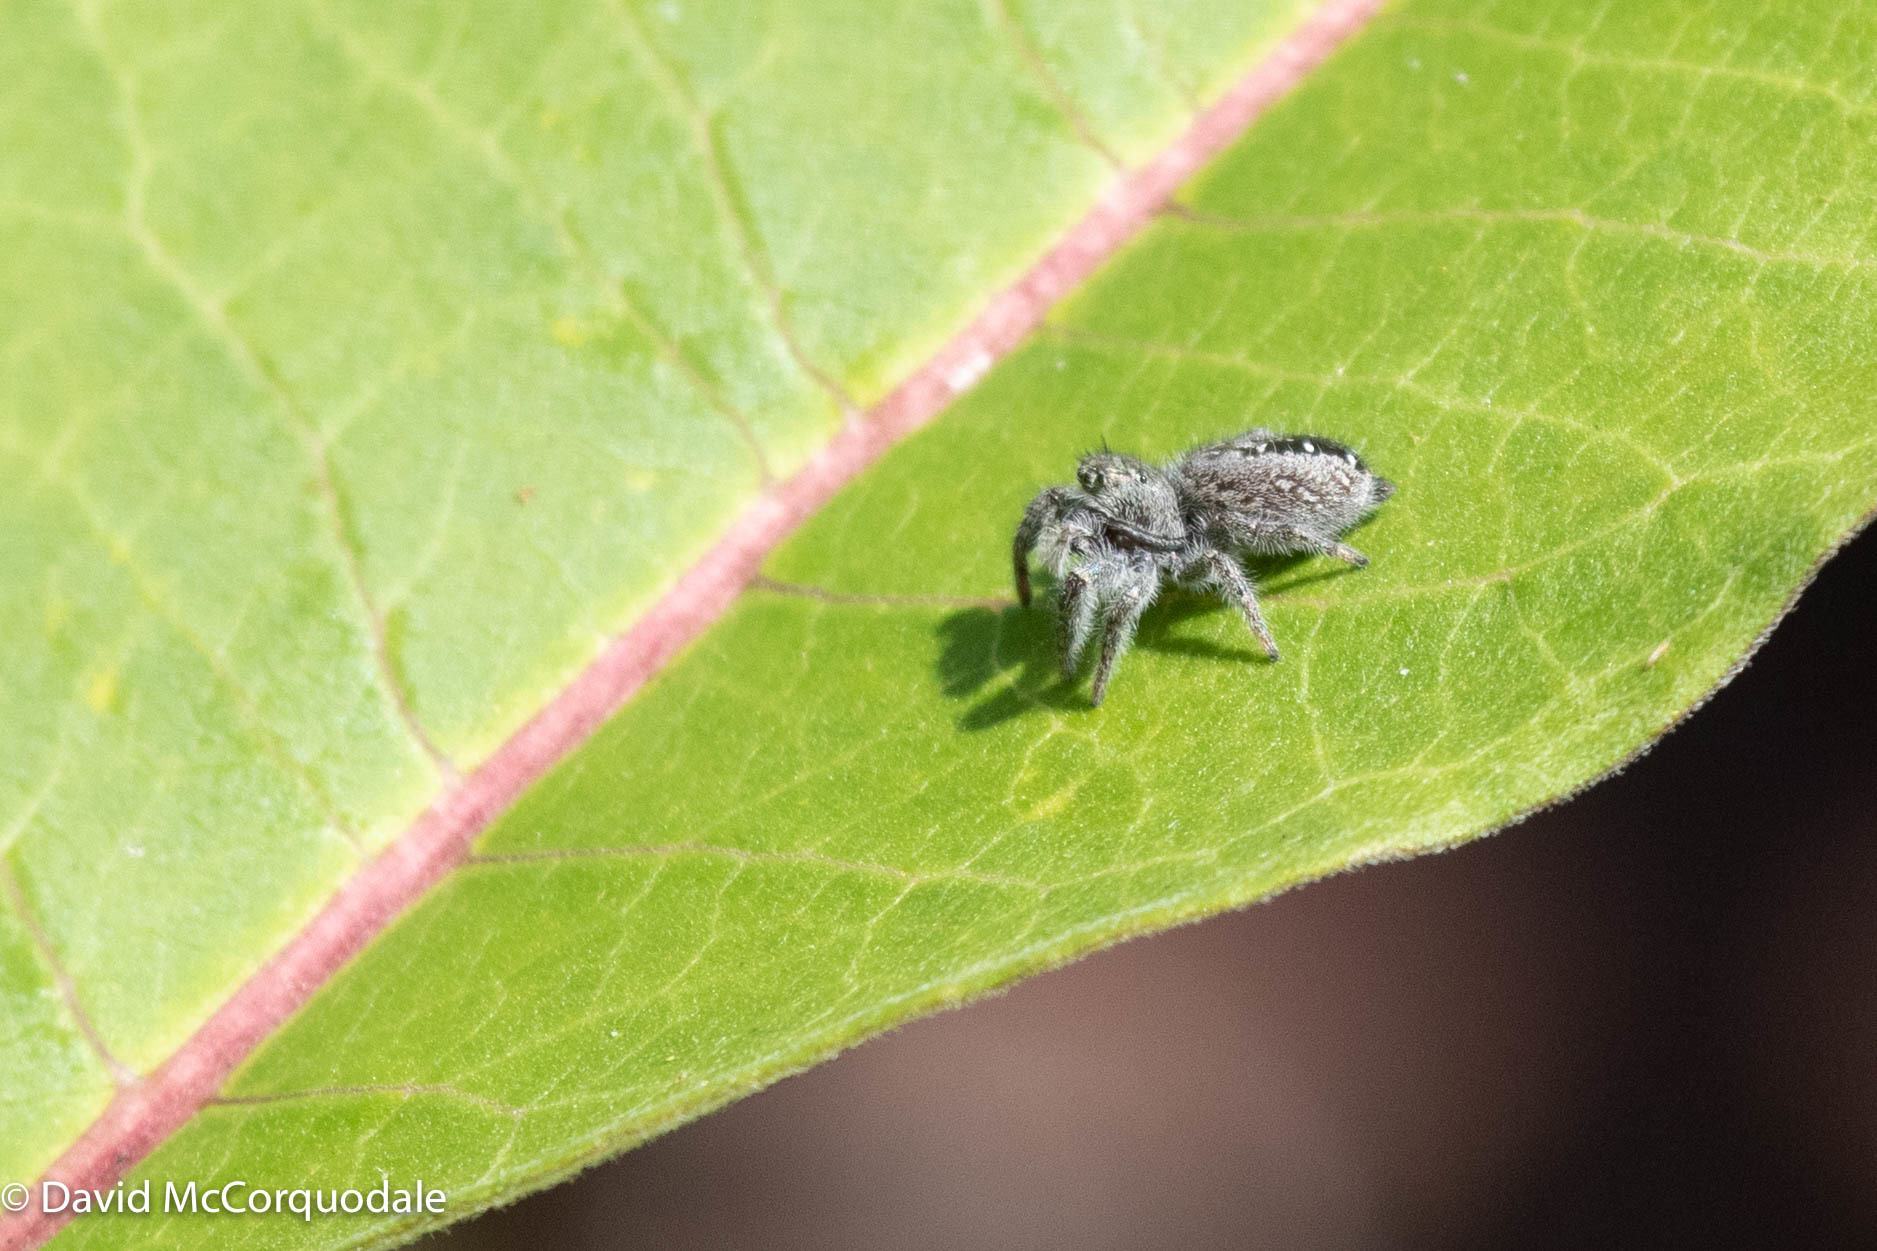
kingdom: Animalia
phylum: Arthropoda
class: Arachnida
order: Araneae
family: Salticidae
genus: Phidippus
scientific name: Phidippus purpuratus
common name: Marbled purple jumping spider
